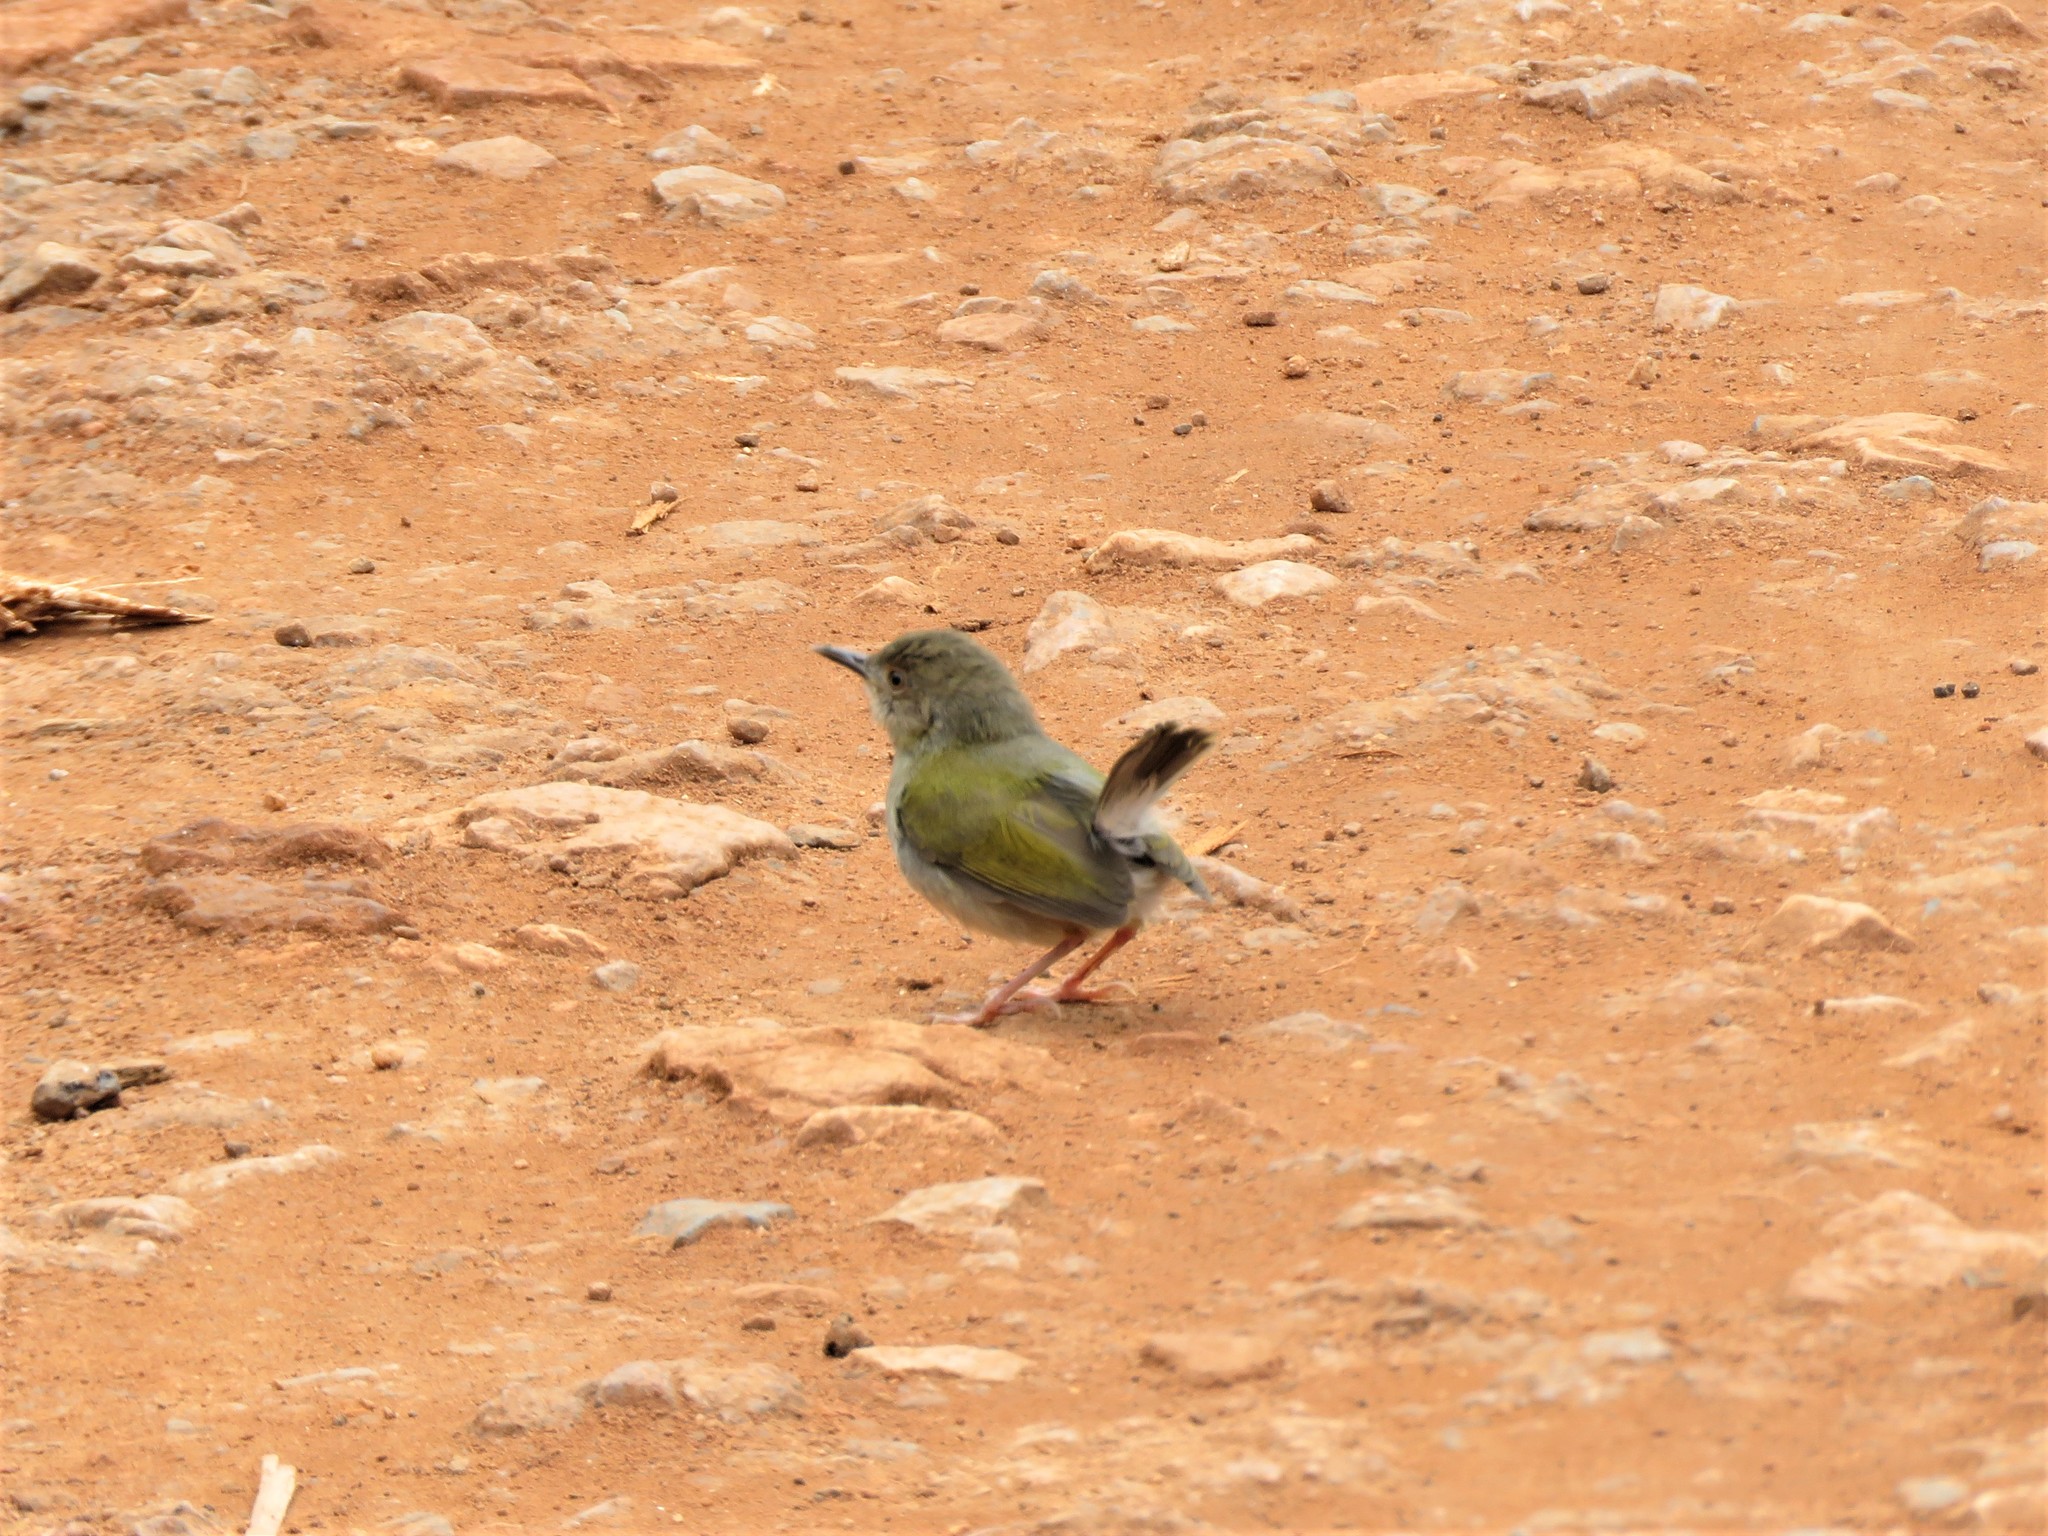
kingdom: Animalia
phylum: Chordata
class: Aves
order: Passeriformes
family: Cisticolidae
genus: Camaroptera
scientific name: Camaroptera brachyura
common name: Green-backed camaroptera
